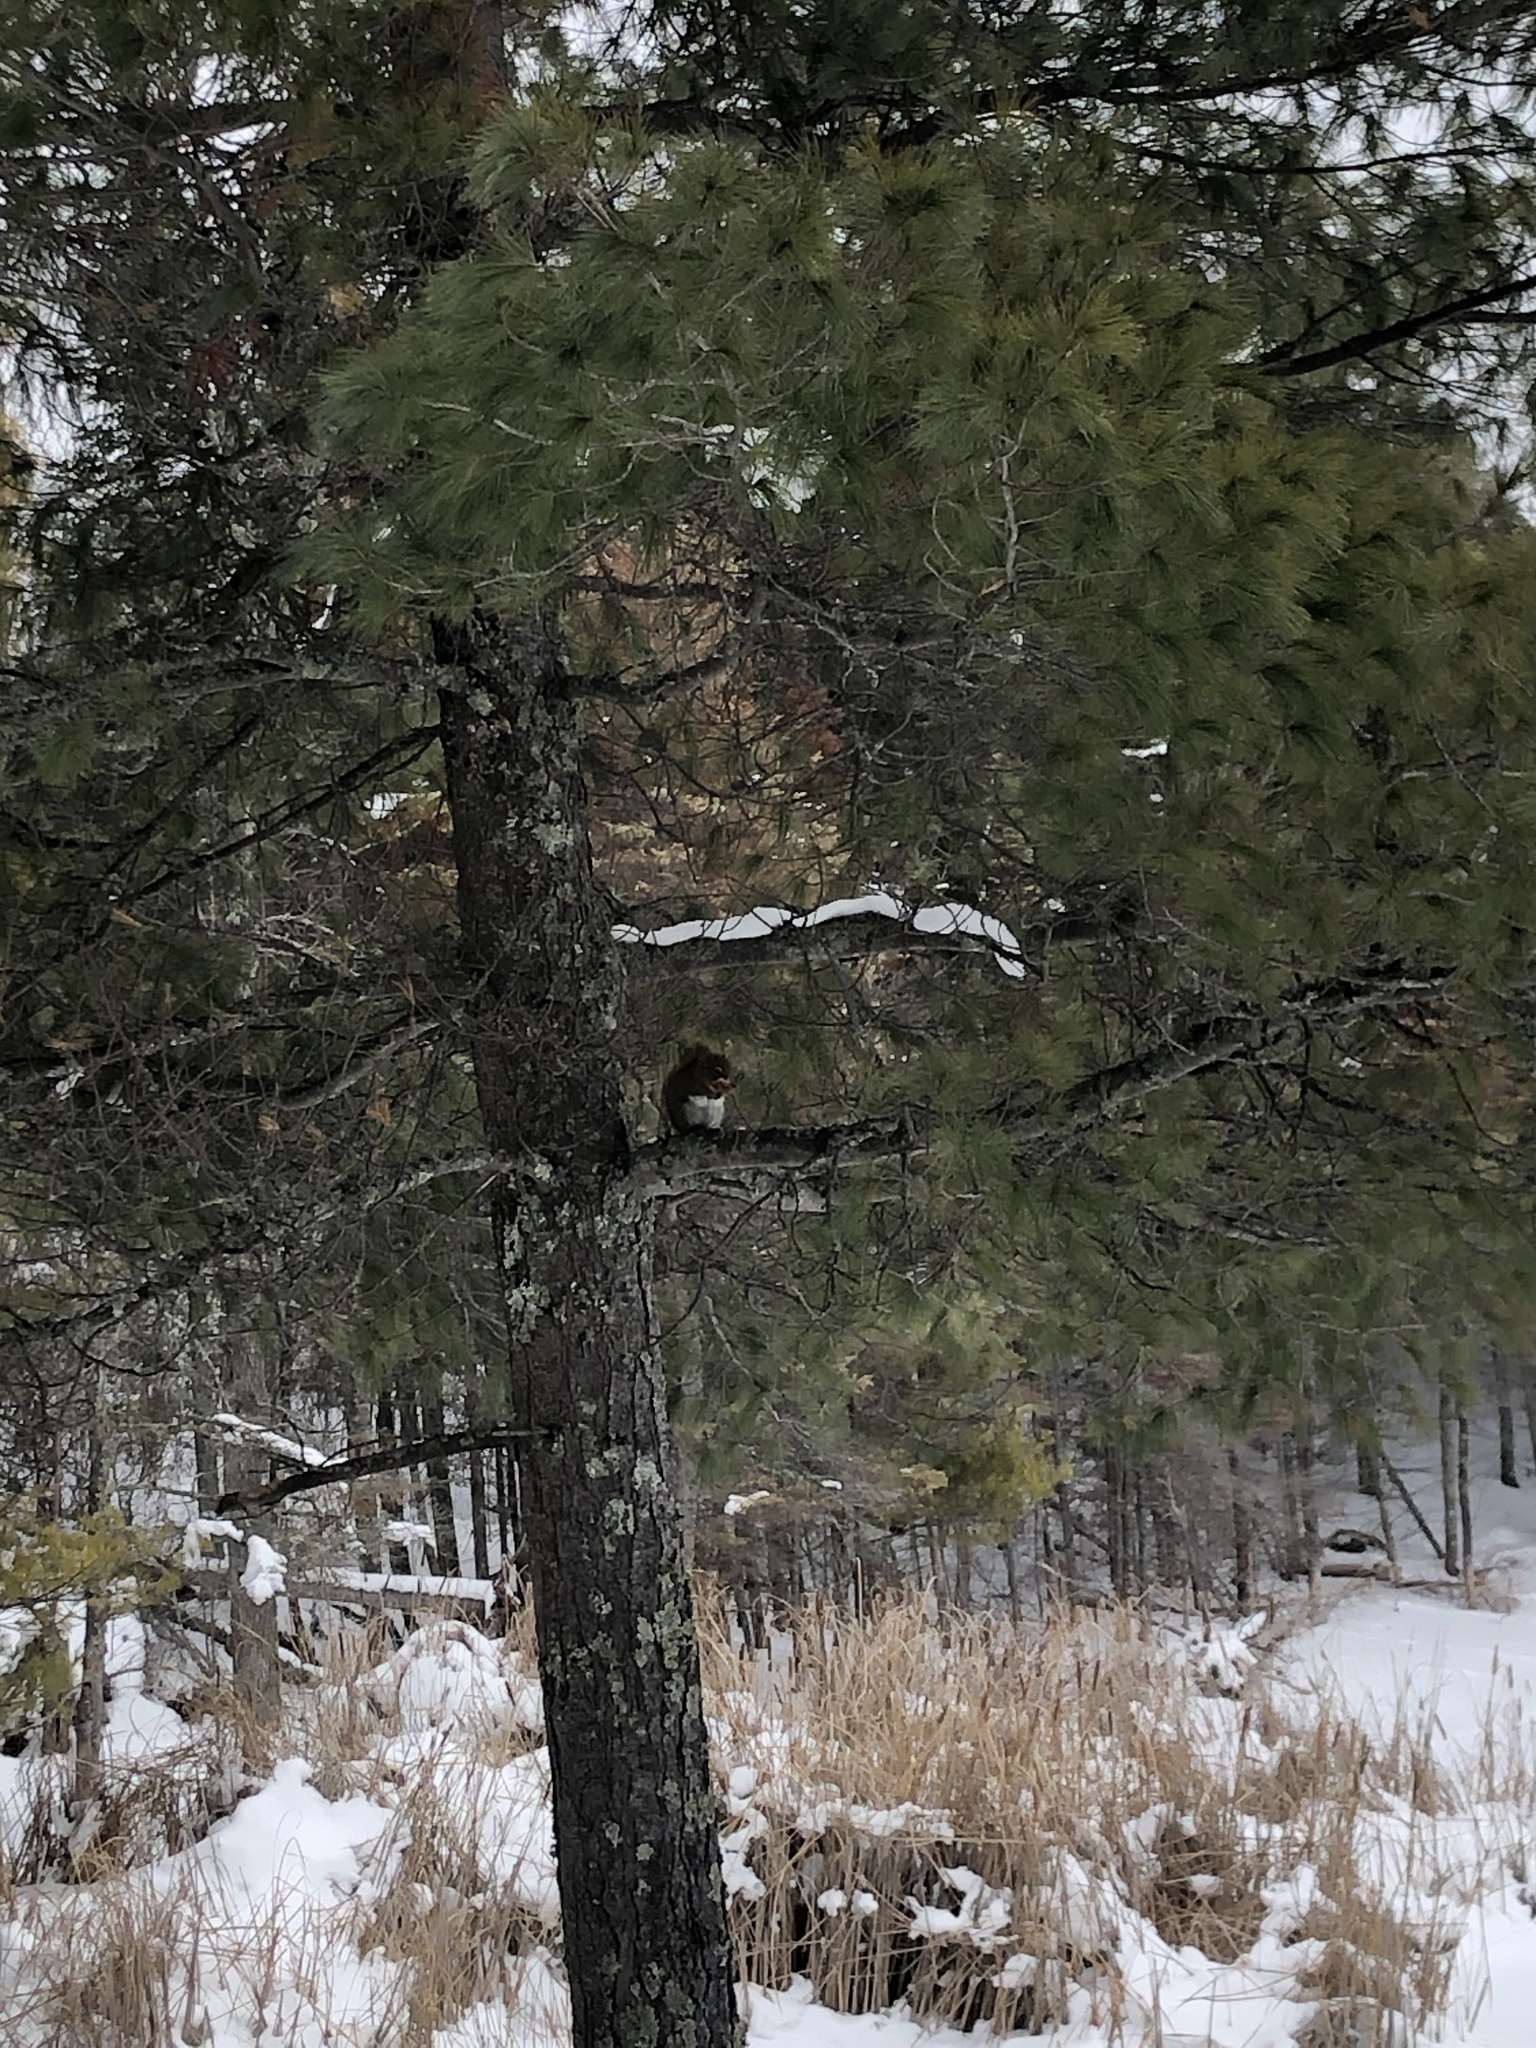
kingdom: Animalia
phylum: Chordata
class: Mammalia
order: Rodentia
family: Sciuridae
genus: Tamiasciurus
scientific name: Tamiasciurus hudsonicus
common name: Red squirrel
